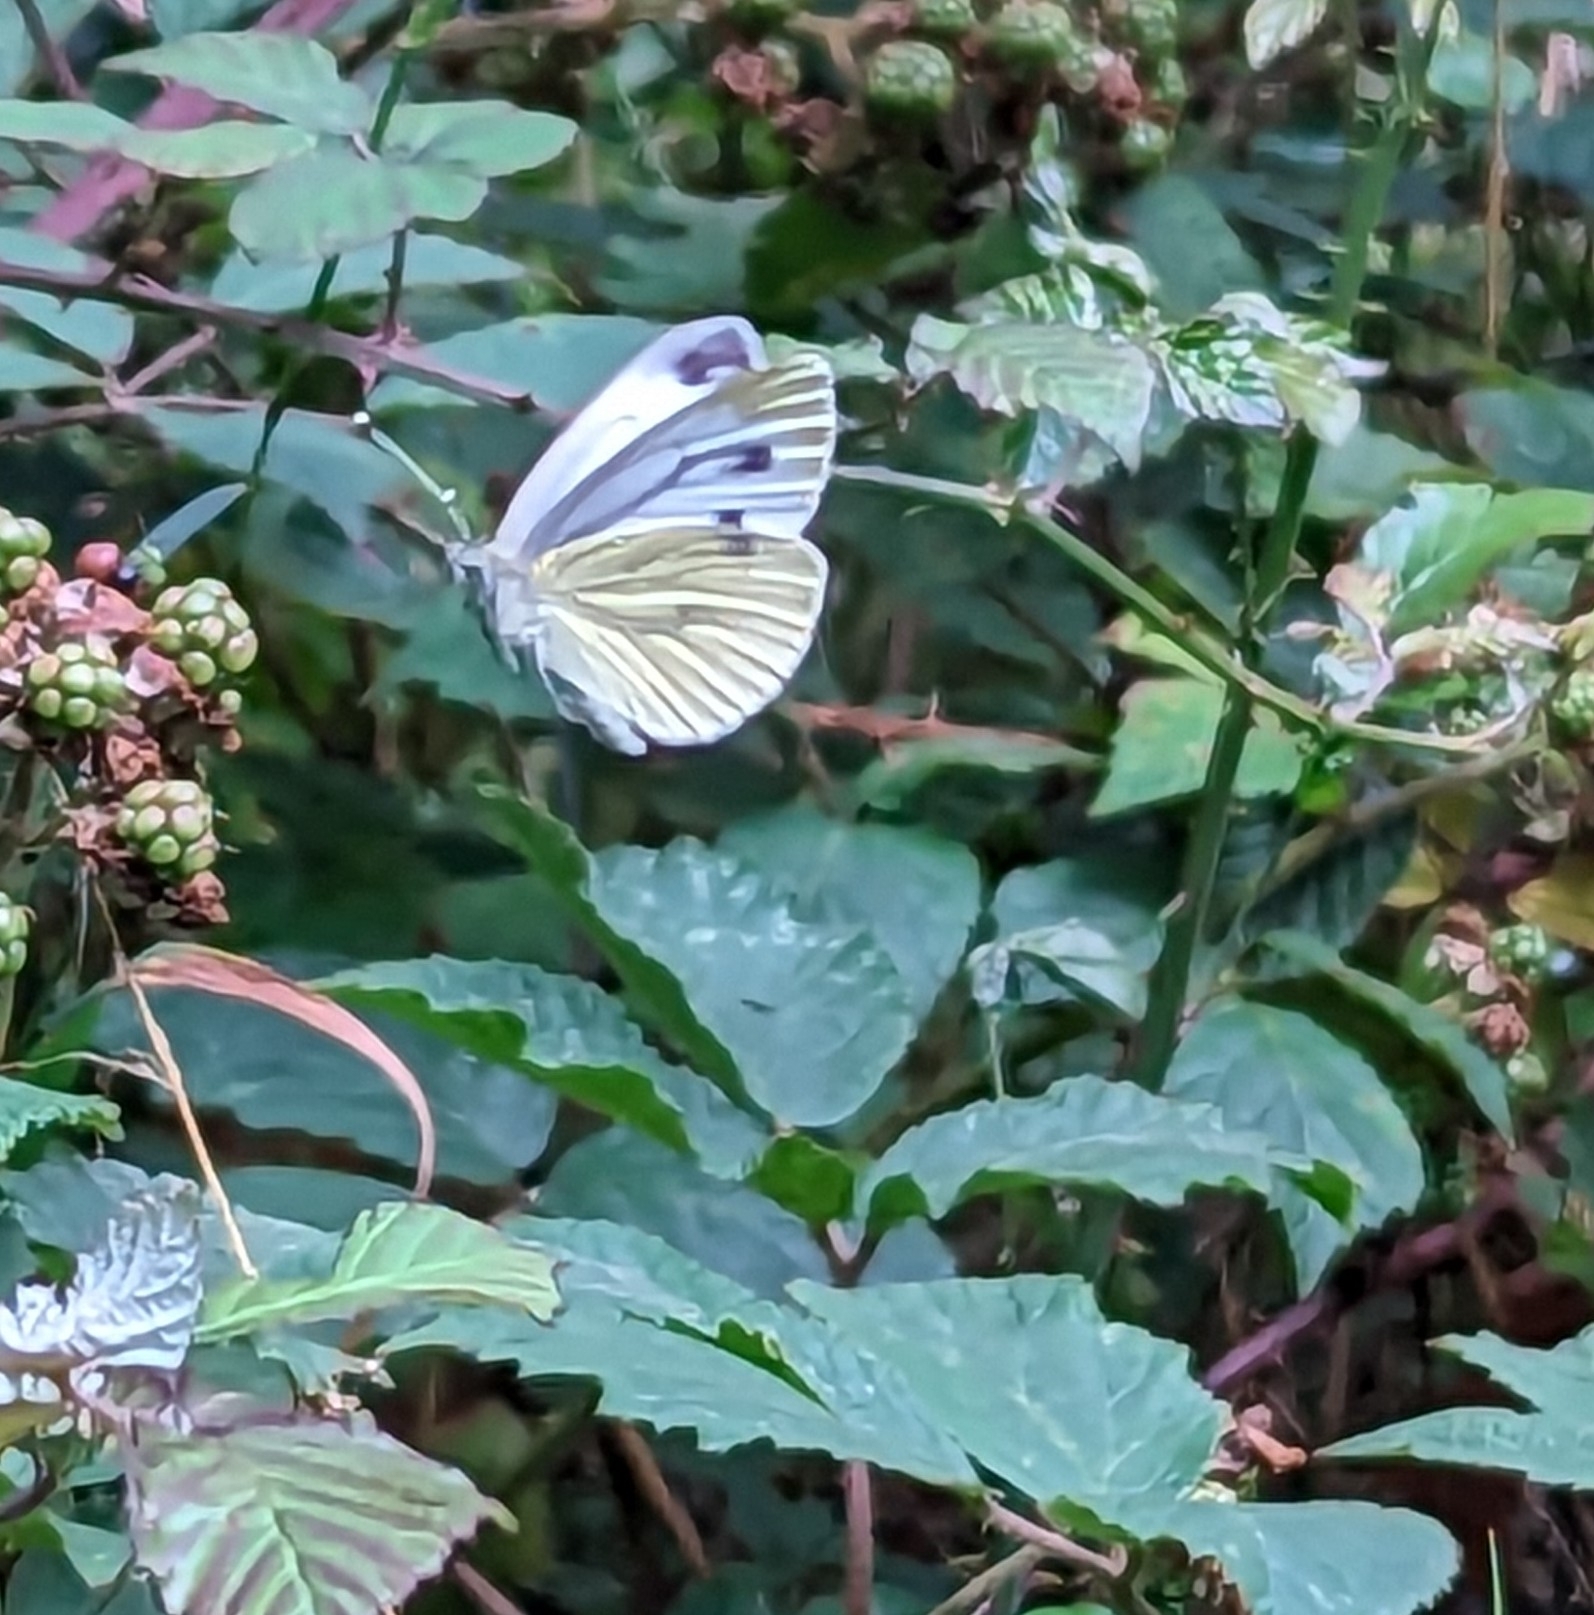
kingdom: Animalia
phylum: Arthropoda
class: Insecta
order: Lepidoptera
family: Pieridae
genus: Pieris
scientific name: Pieris napi
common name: Green-veined white
